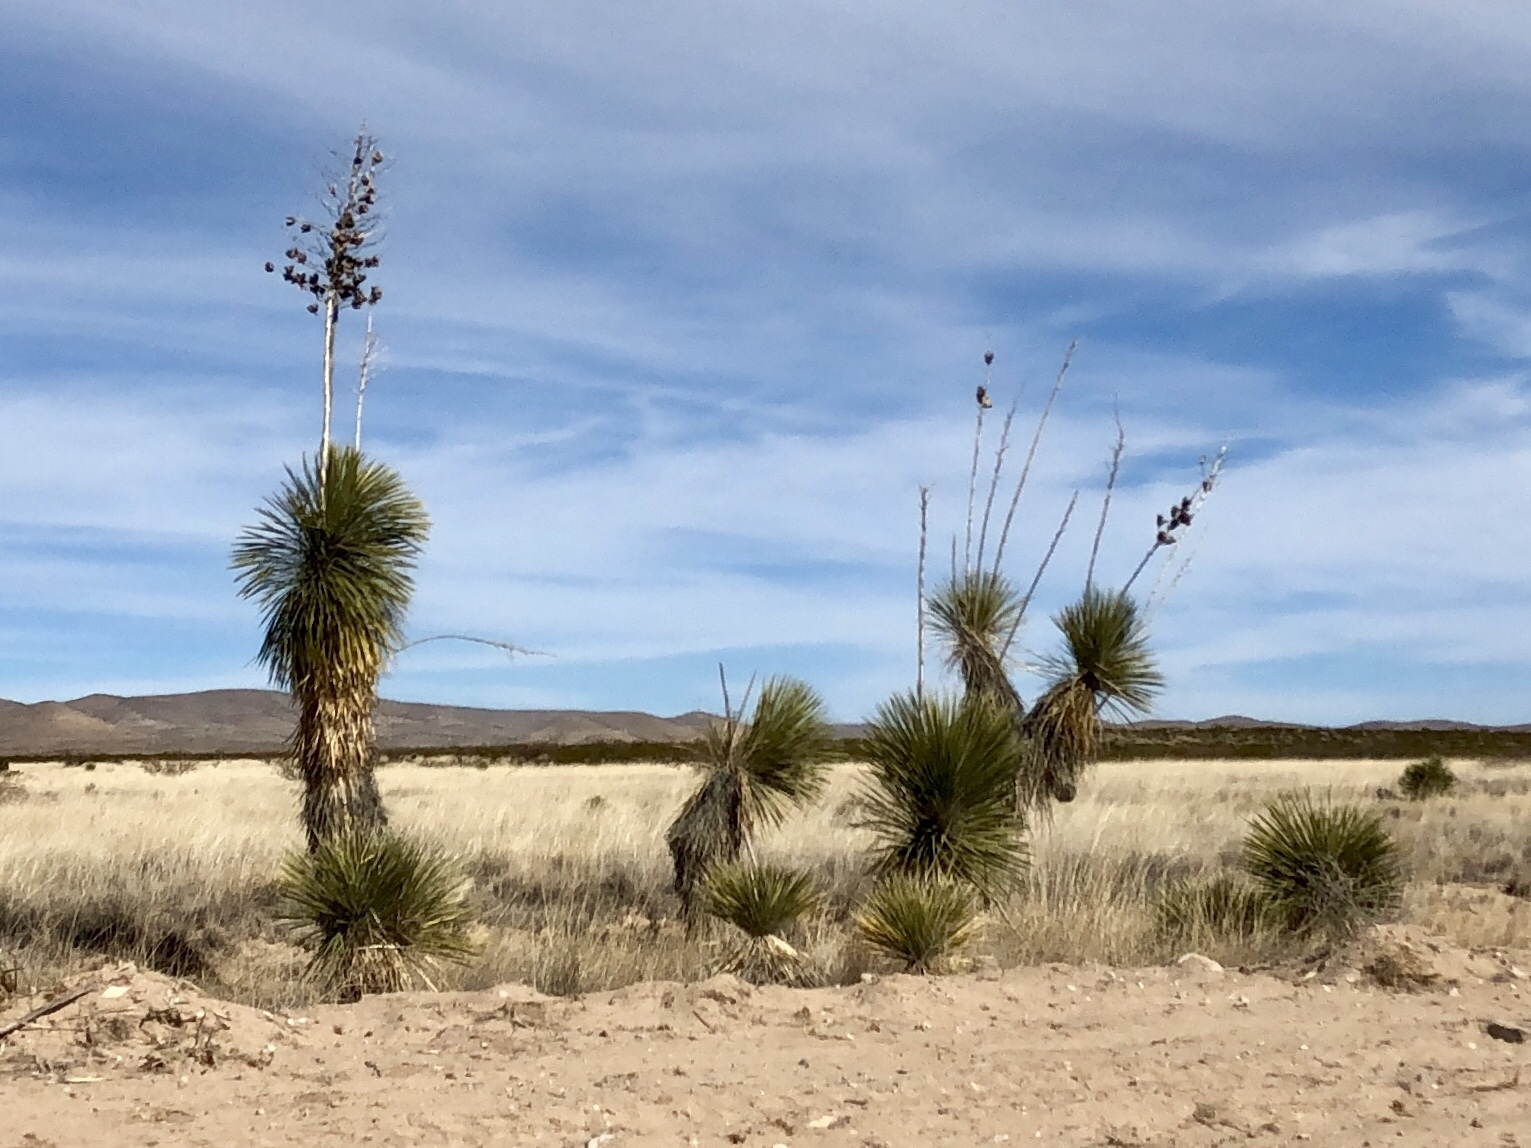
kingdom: Plantae
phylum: Tracheophyta
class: Liliopsida
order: Asparagales
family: Asparagaceae
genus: Yucca
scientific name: Yucca elata
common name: Palmella
